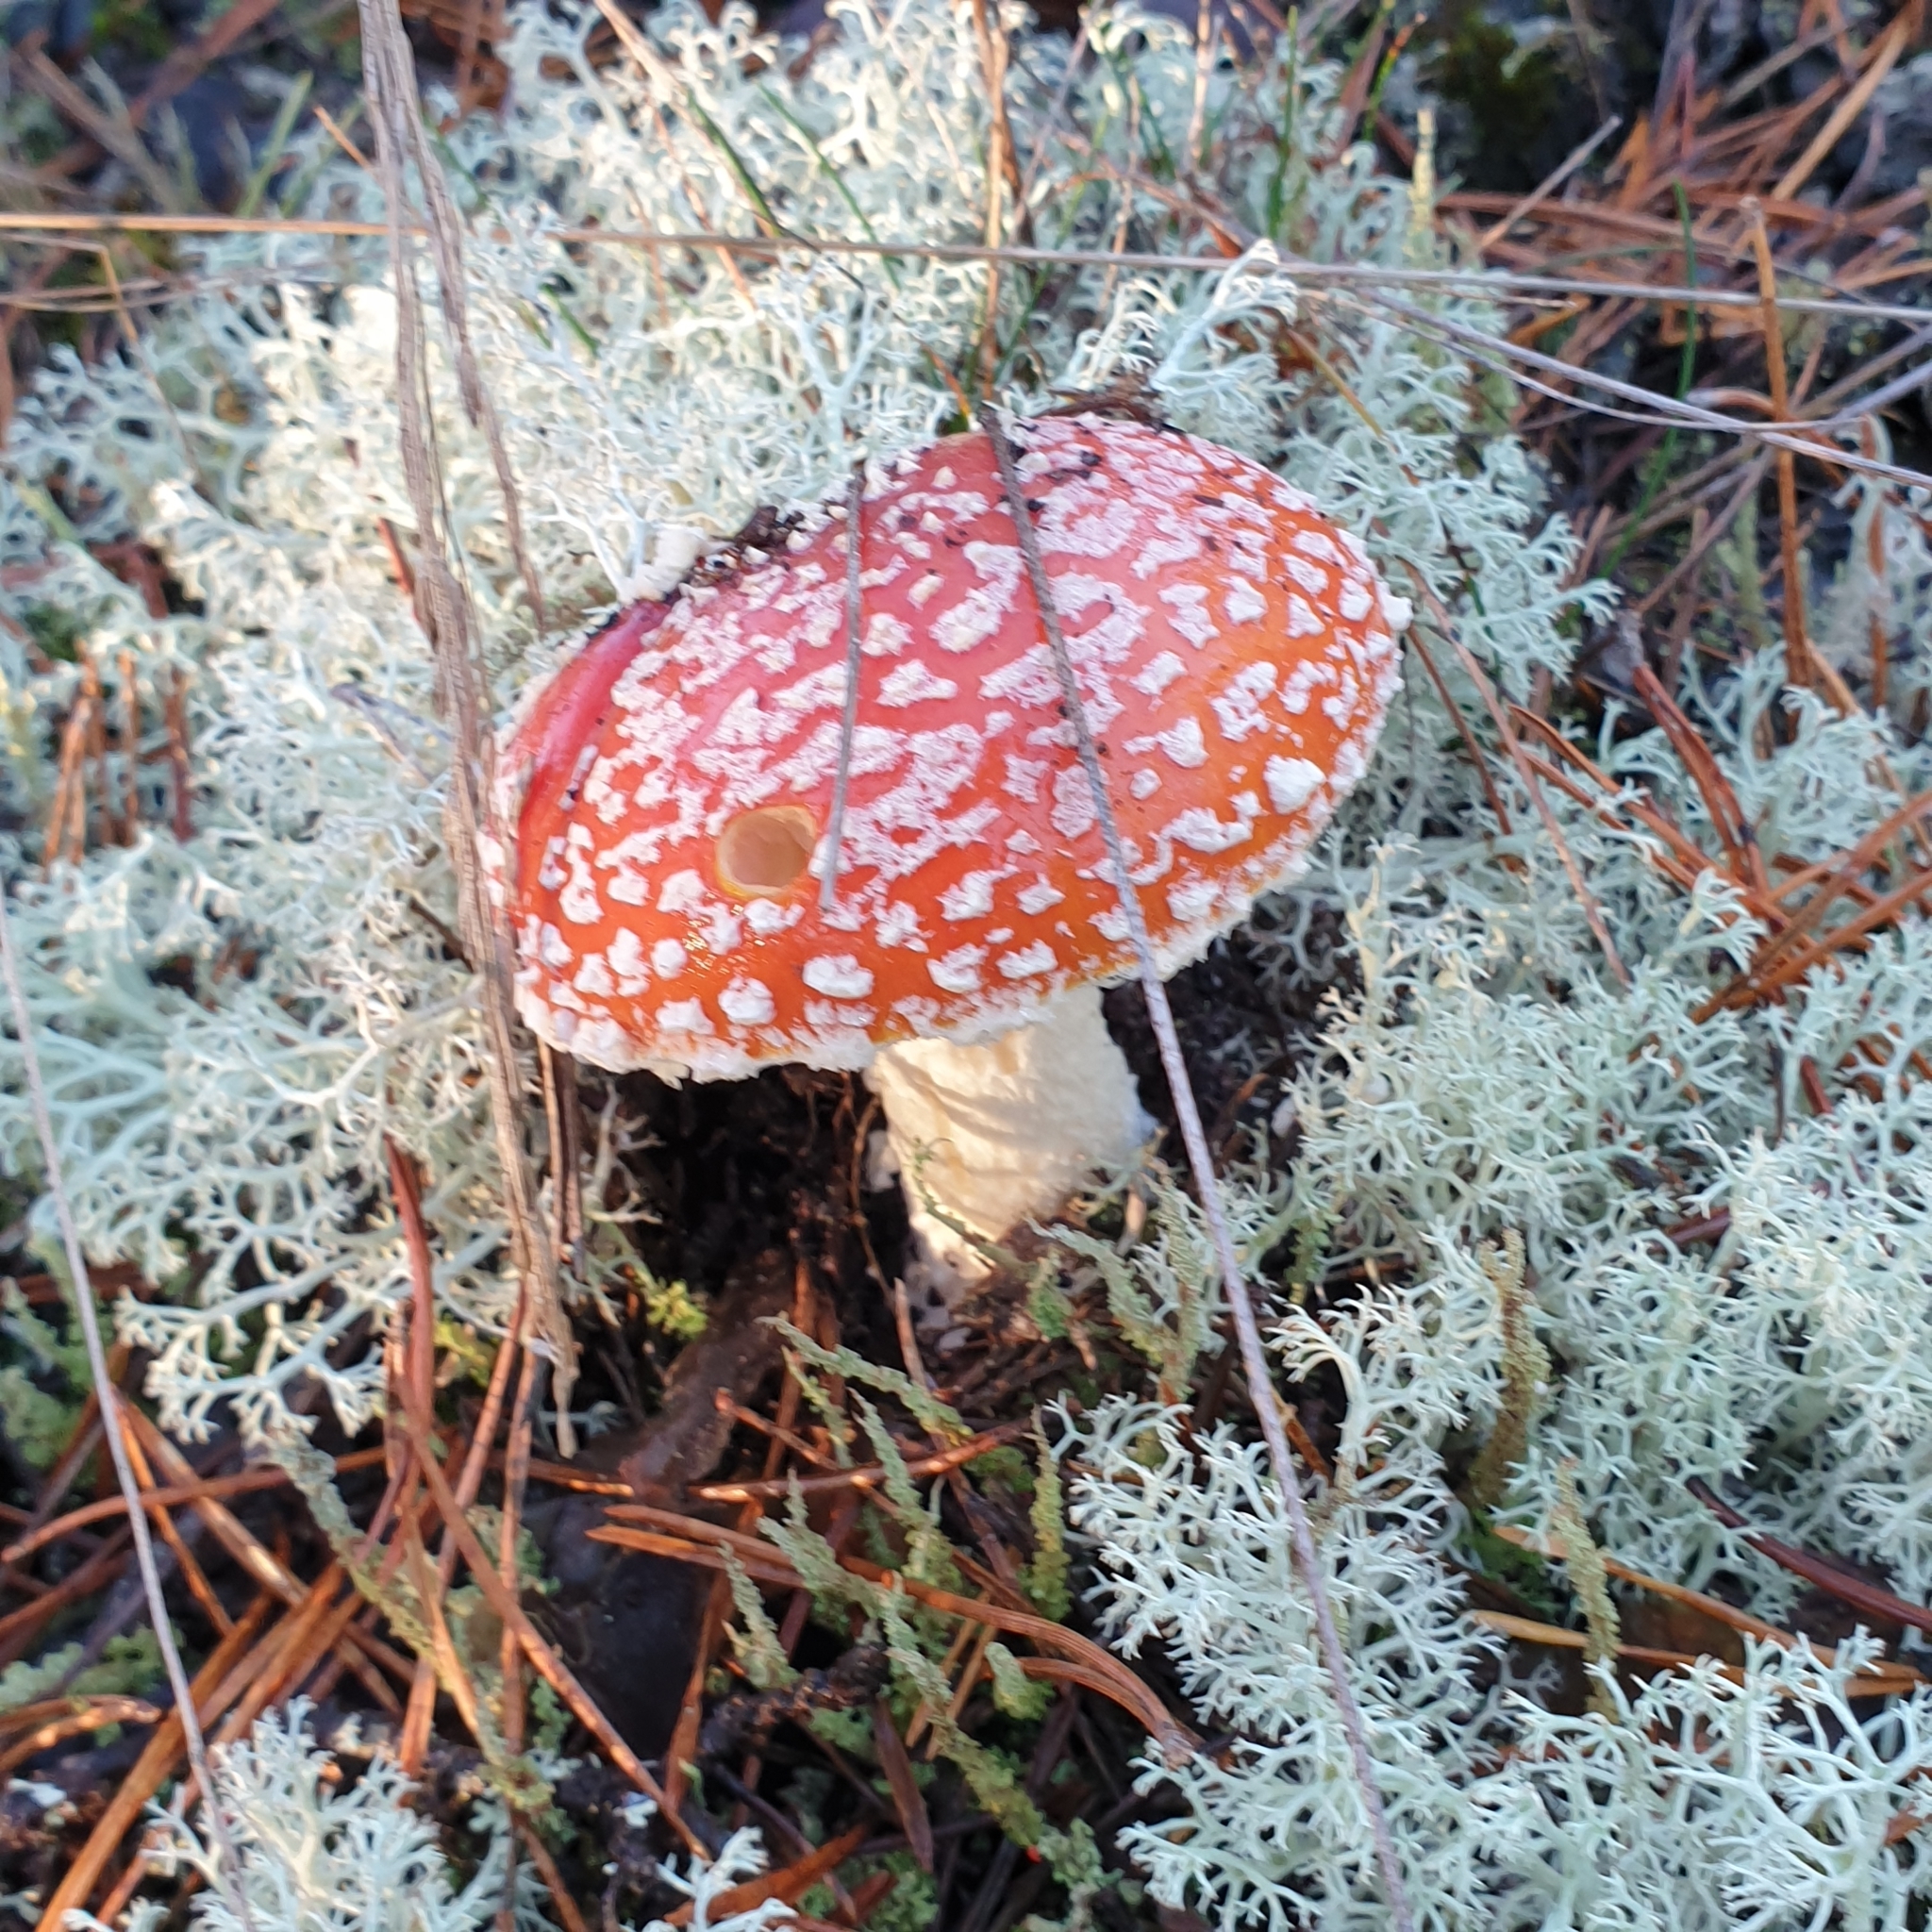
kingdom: Fungi
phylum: Basidiomycota
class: Agaricomycetes
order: Agaricales
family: Amanitaceae
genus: Amanita
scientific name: Amanita muscaria
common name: Fly agaric
